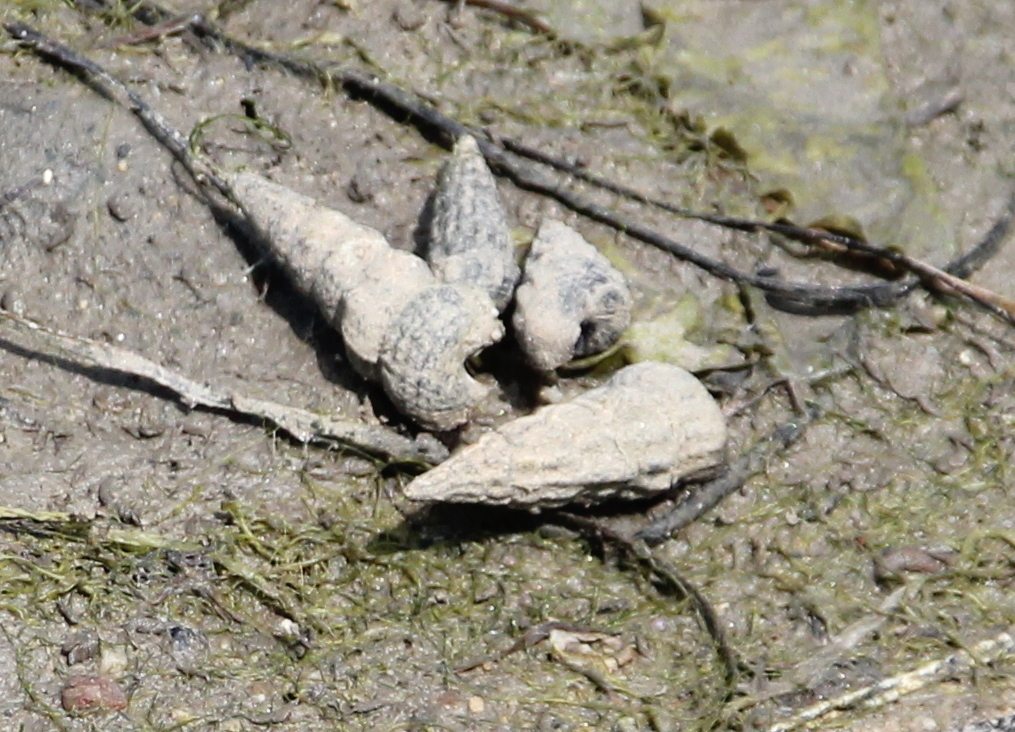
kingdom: Animalia
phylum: Mollusca
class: Gastropoda
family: Potamididae
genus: Cerithideopsis
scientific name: Cerithideopsis californica
